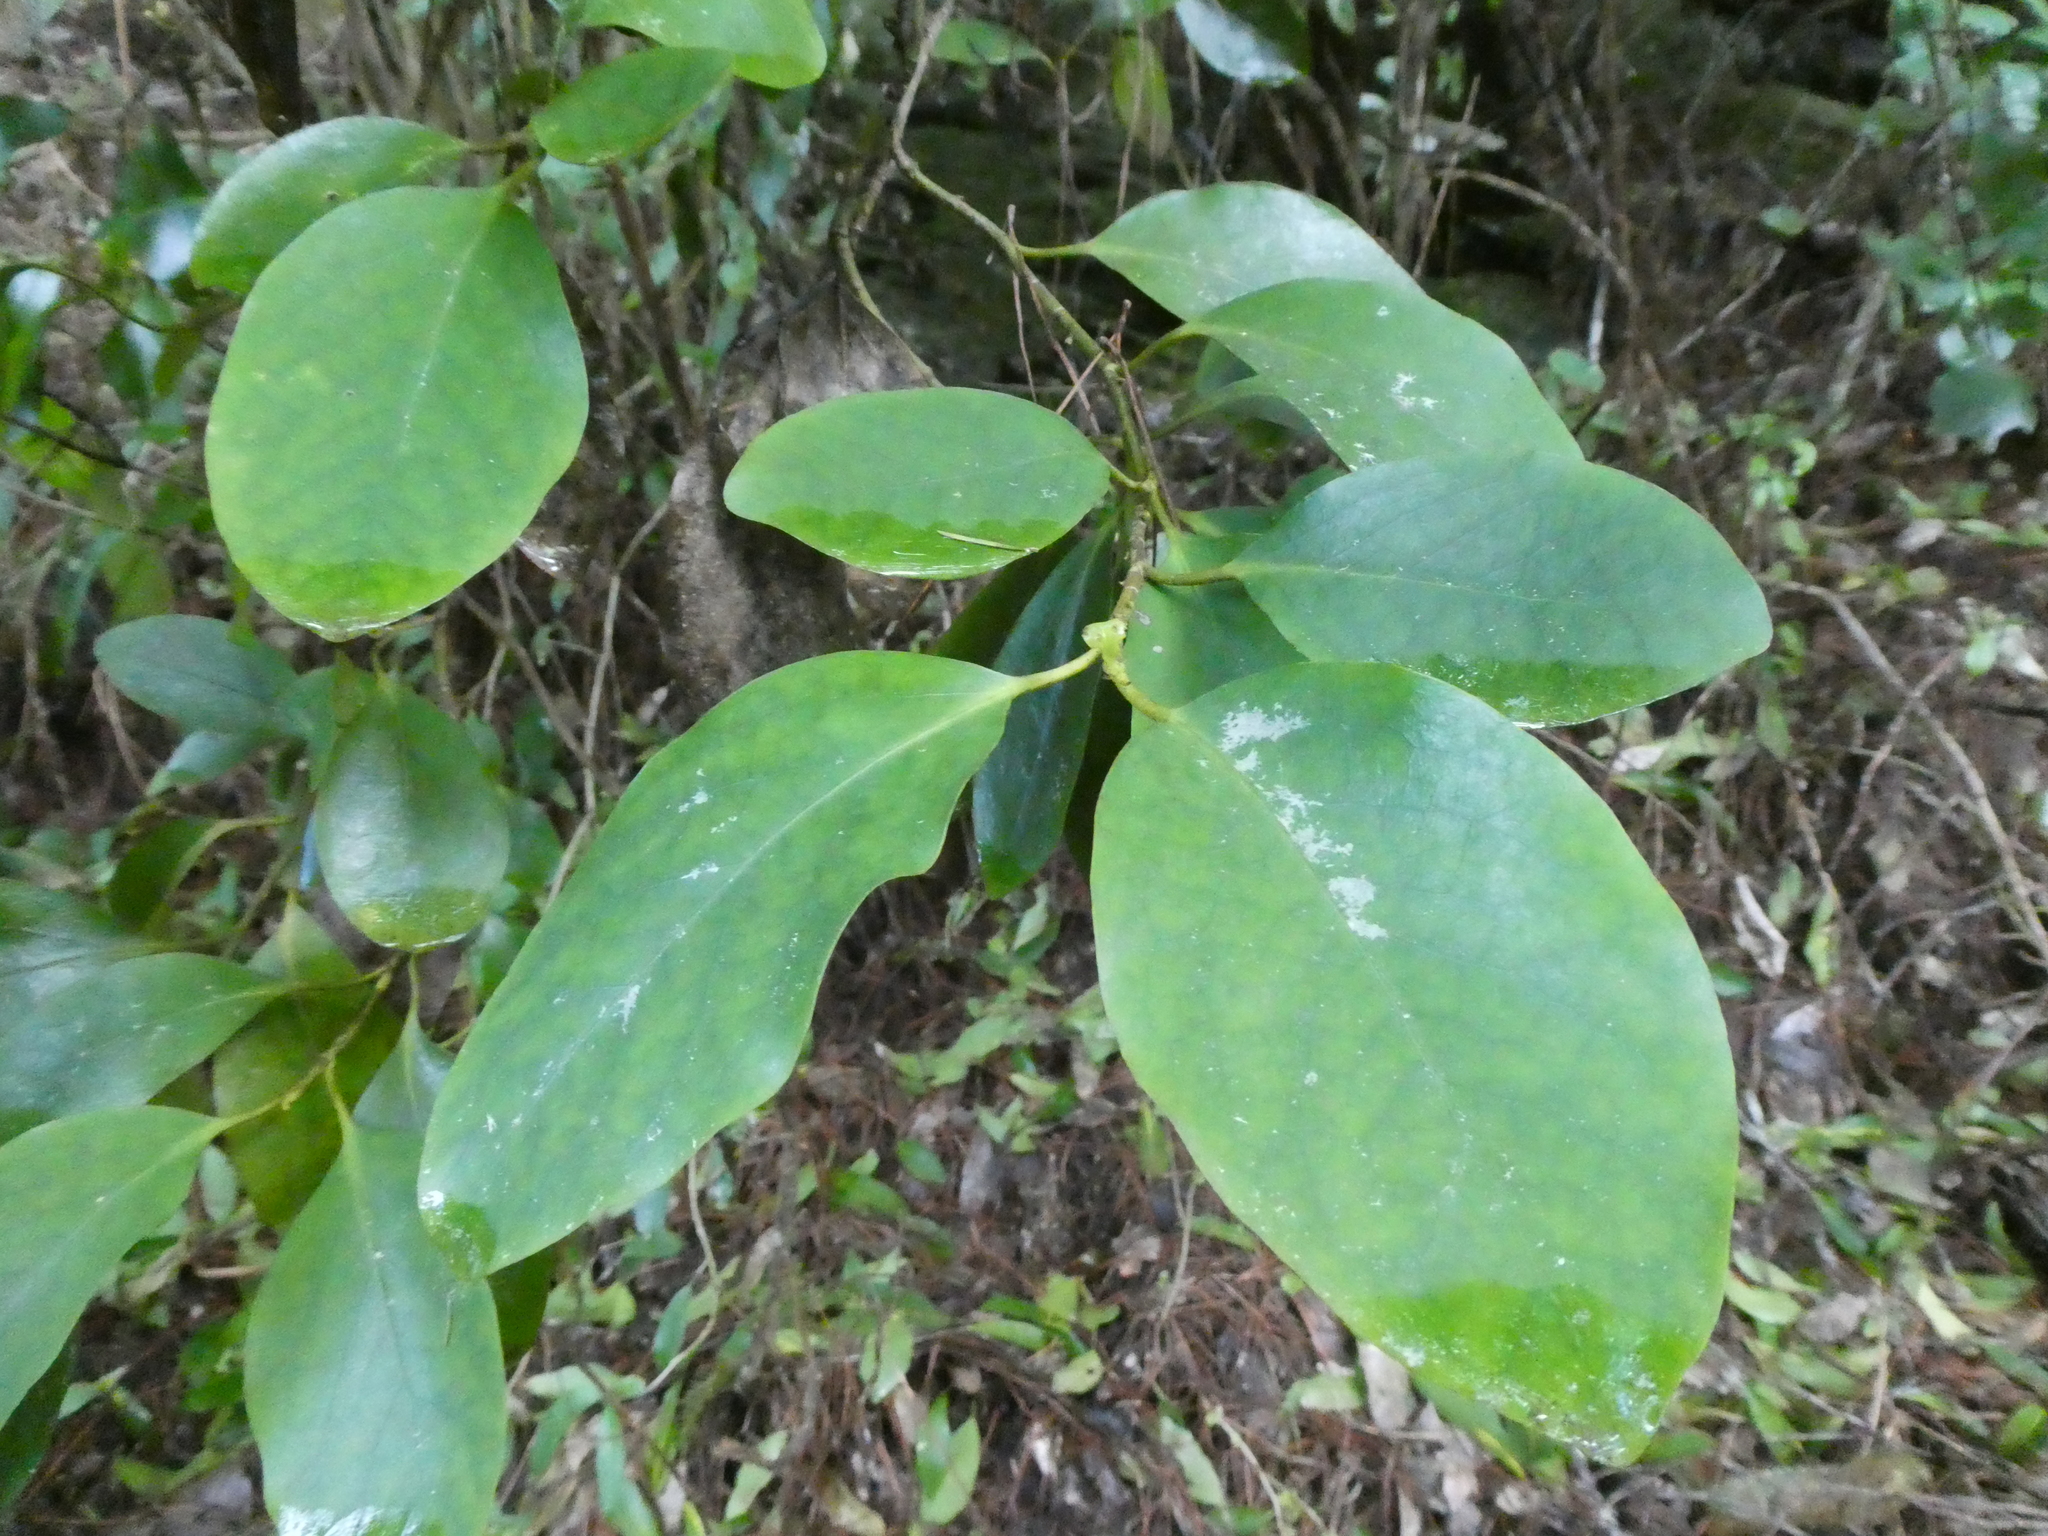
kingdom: Plantae
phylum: Tracheophyta
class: Magnoliopsida
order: Apiales
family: Griseliniaceae
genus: Griselinia
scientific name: Griselinia littoralis
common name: New zealand broadleaf
